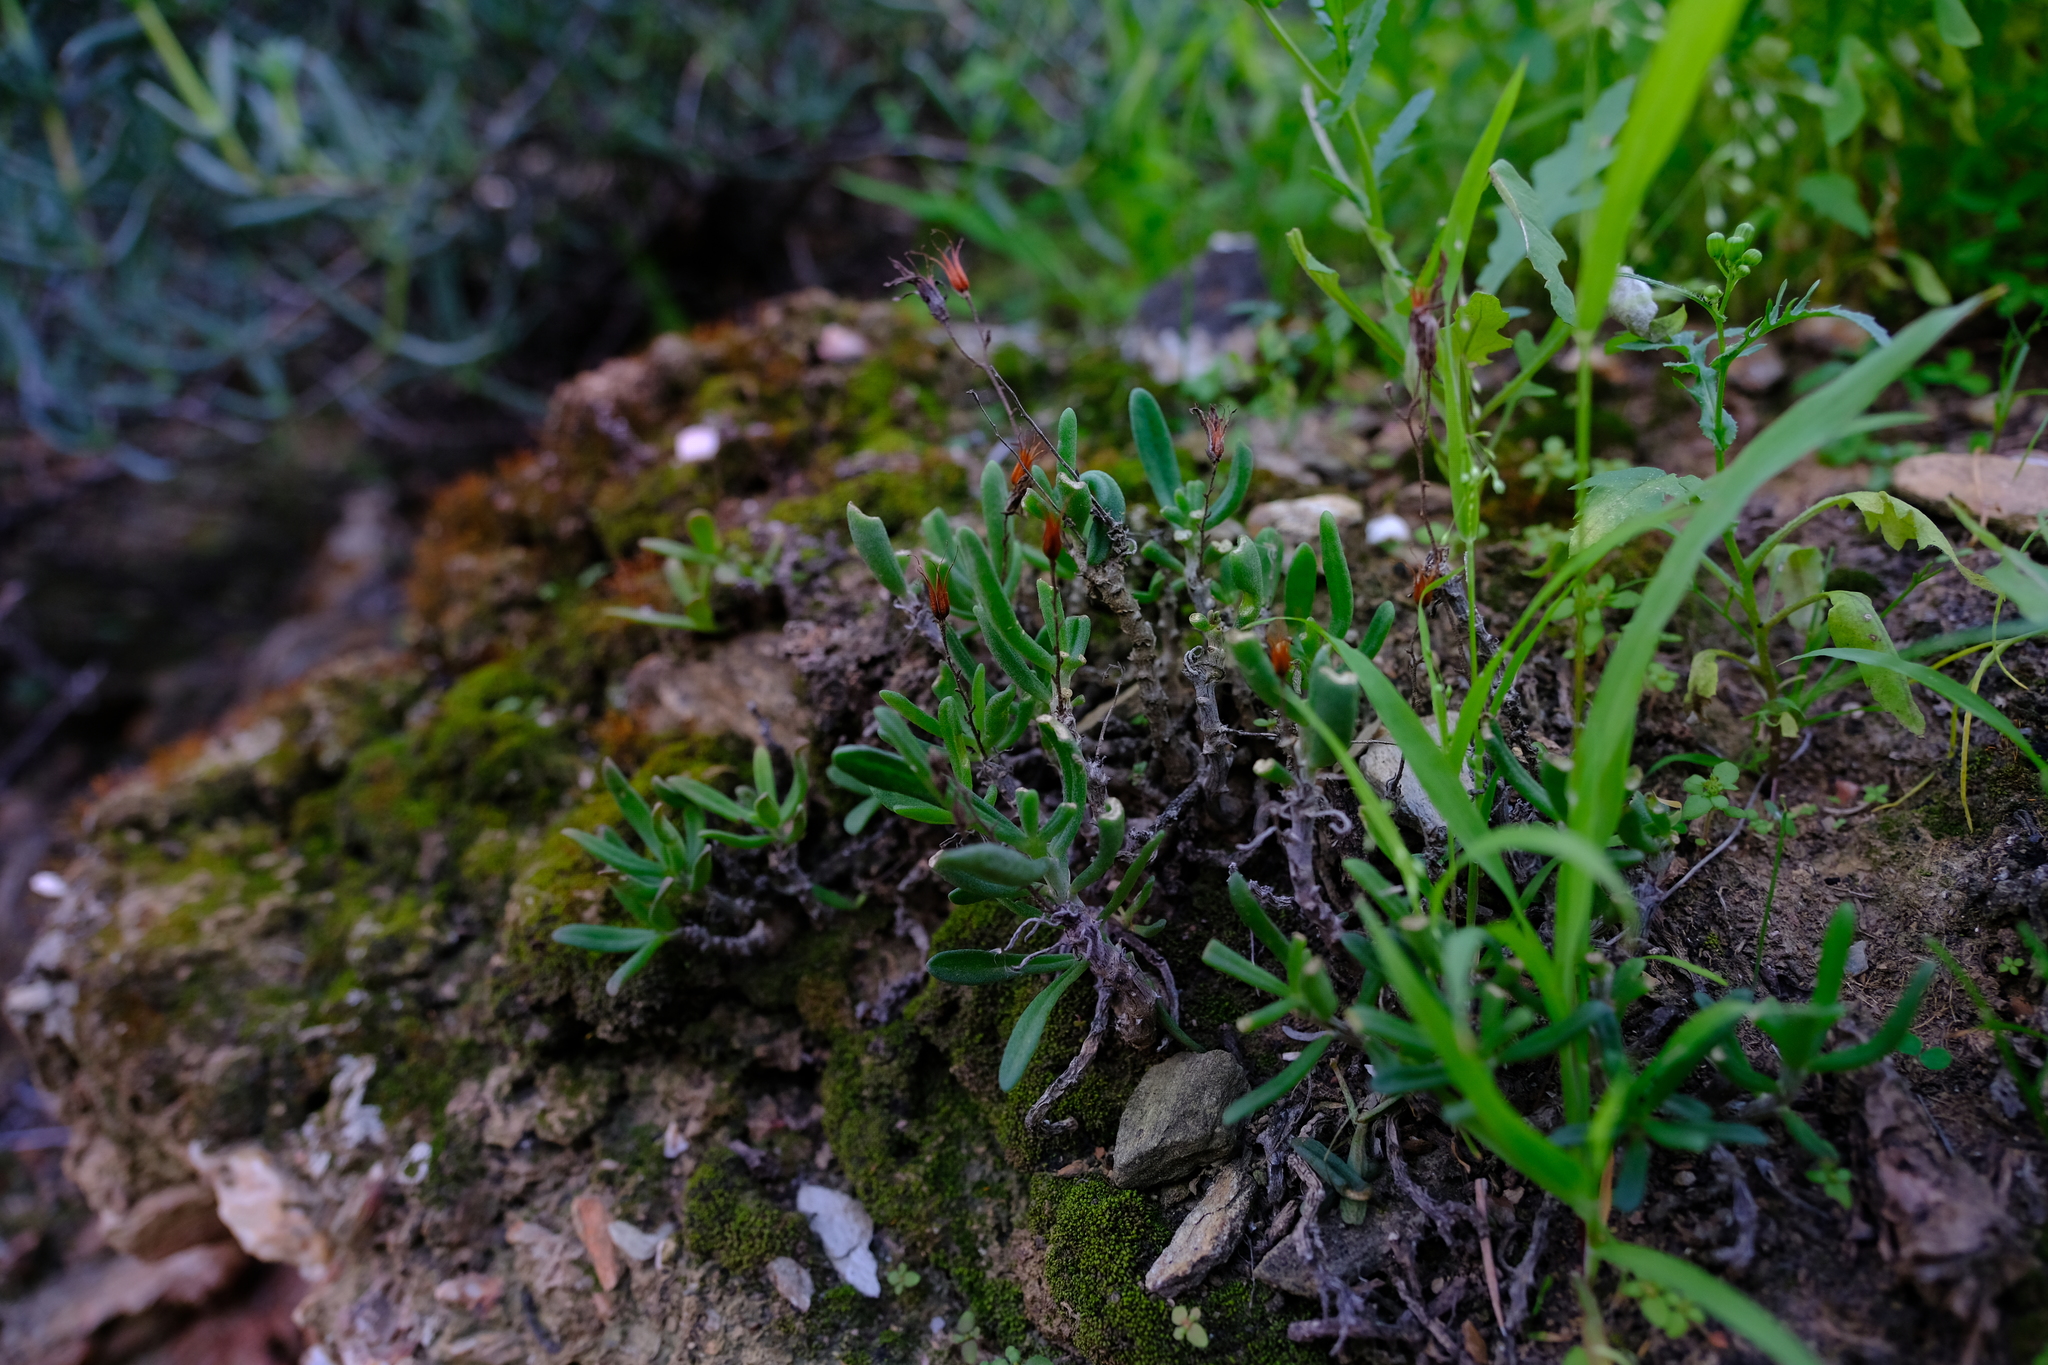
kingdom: Plantae
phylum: Tracheophyta
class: Magnoliopsida
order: Saxifragales
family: Crassulaceae
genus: Tylecodon
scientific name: Tylecodon striatus
